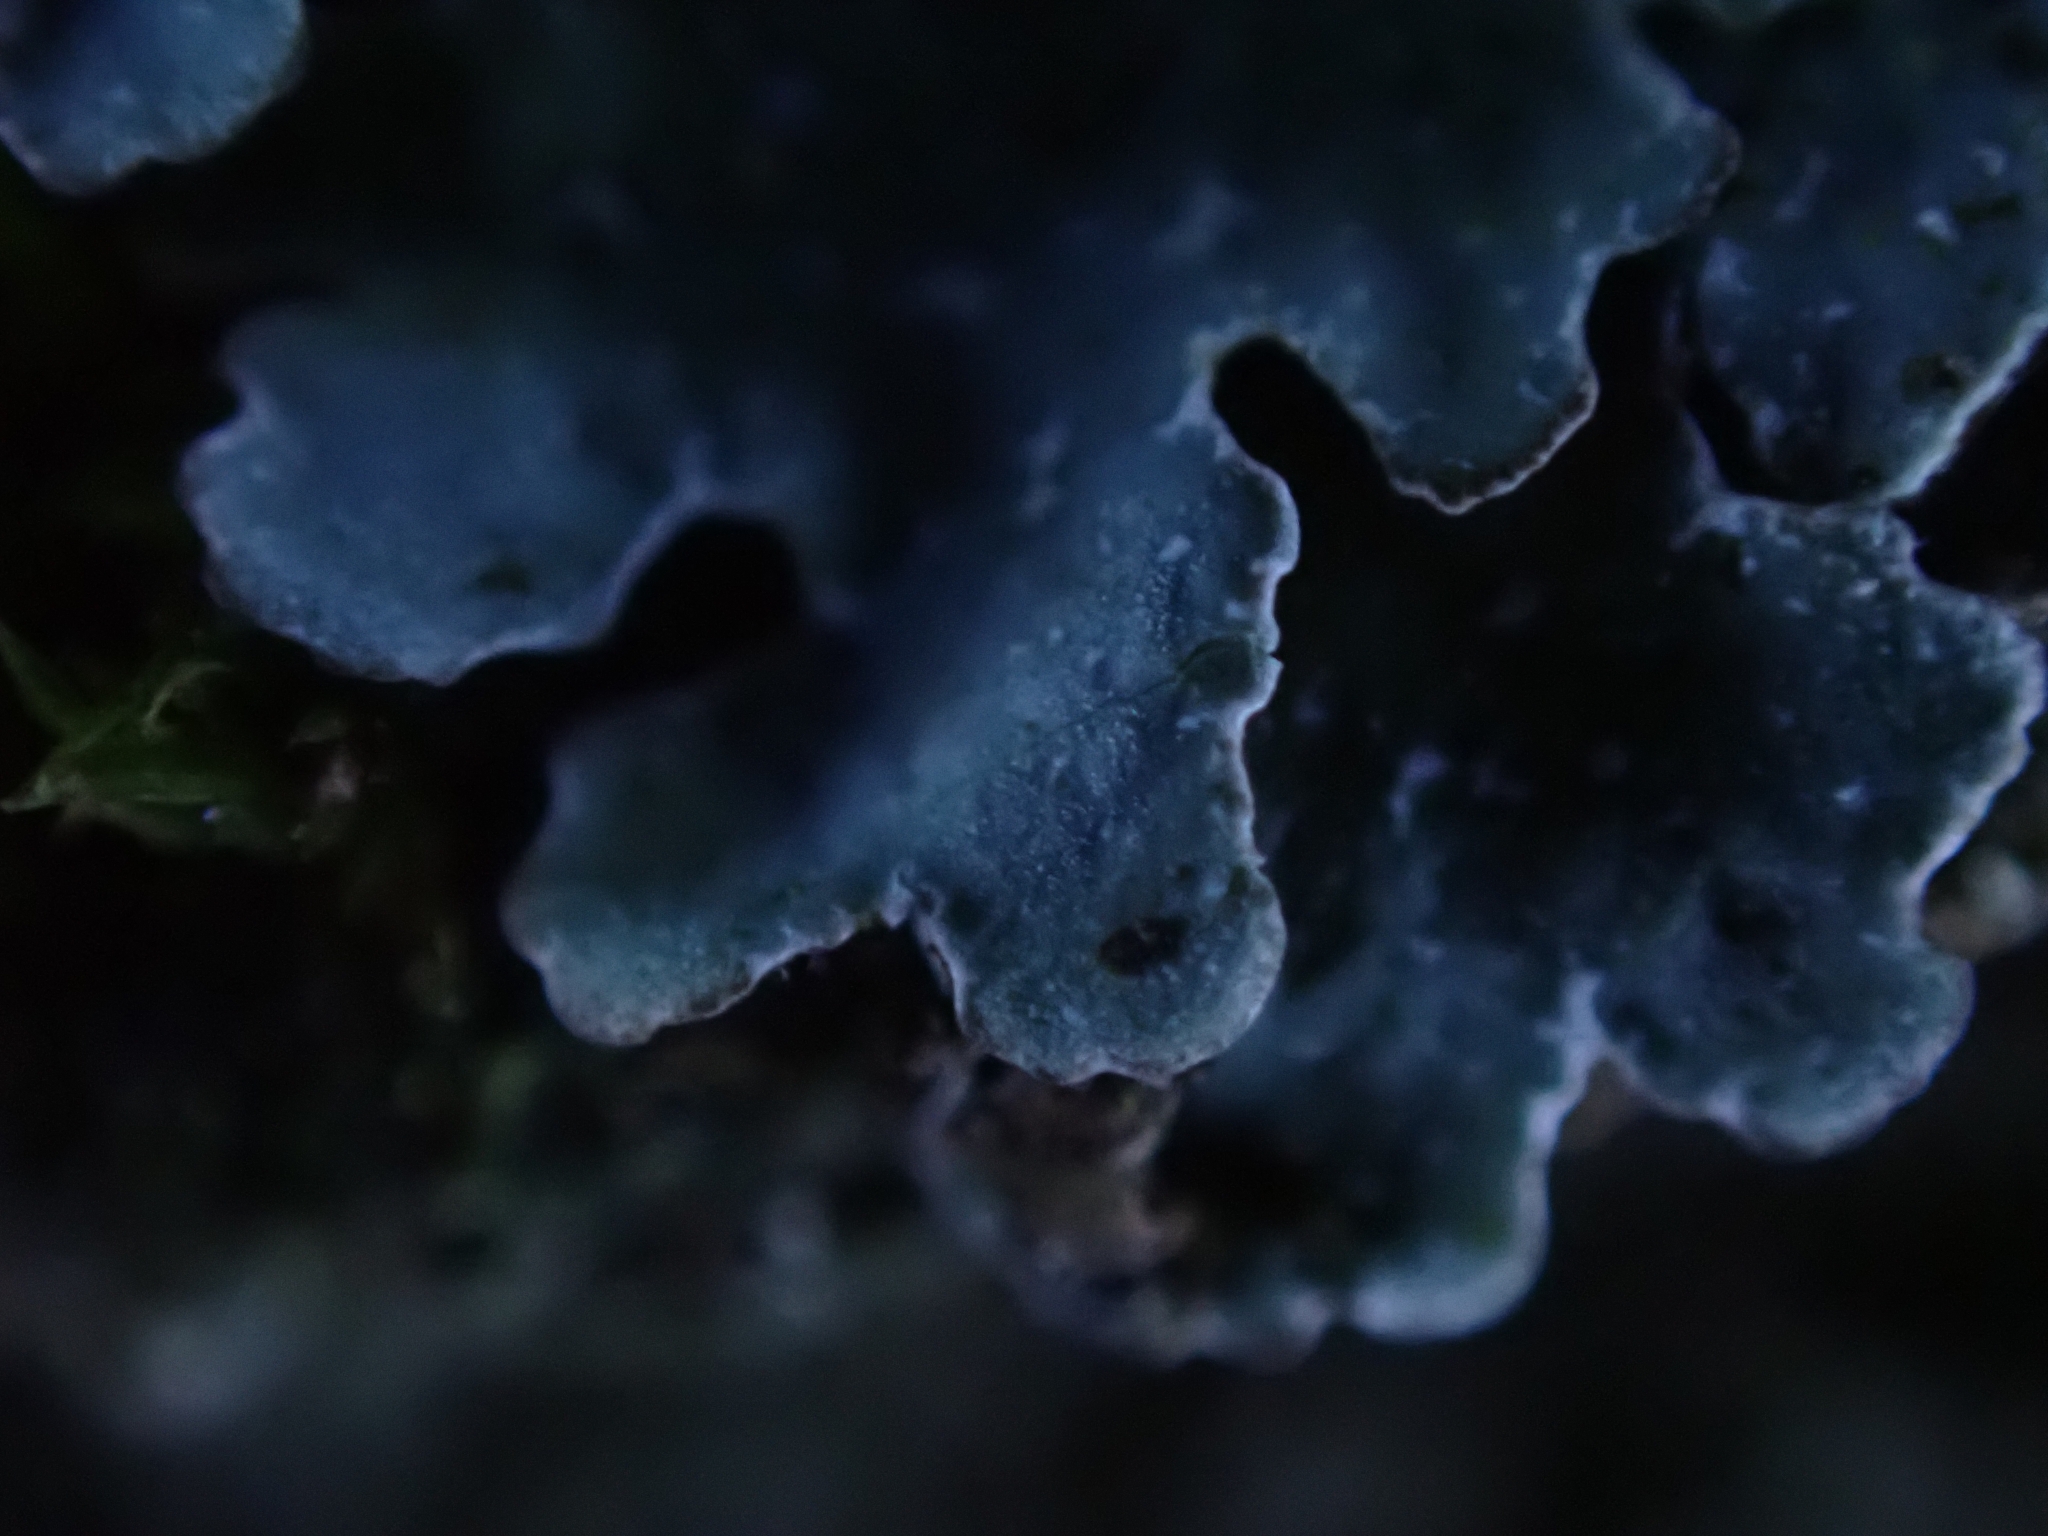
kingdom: Fungi
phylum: Ascomycota
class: Lecanoromycetes
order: Lecanorales
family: Parmeliaceae
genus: Parmelia
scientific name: Parmelia sulcata
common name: Netted shield lichen
